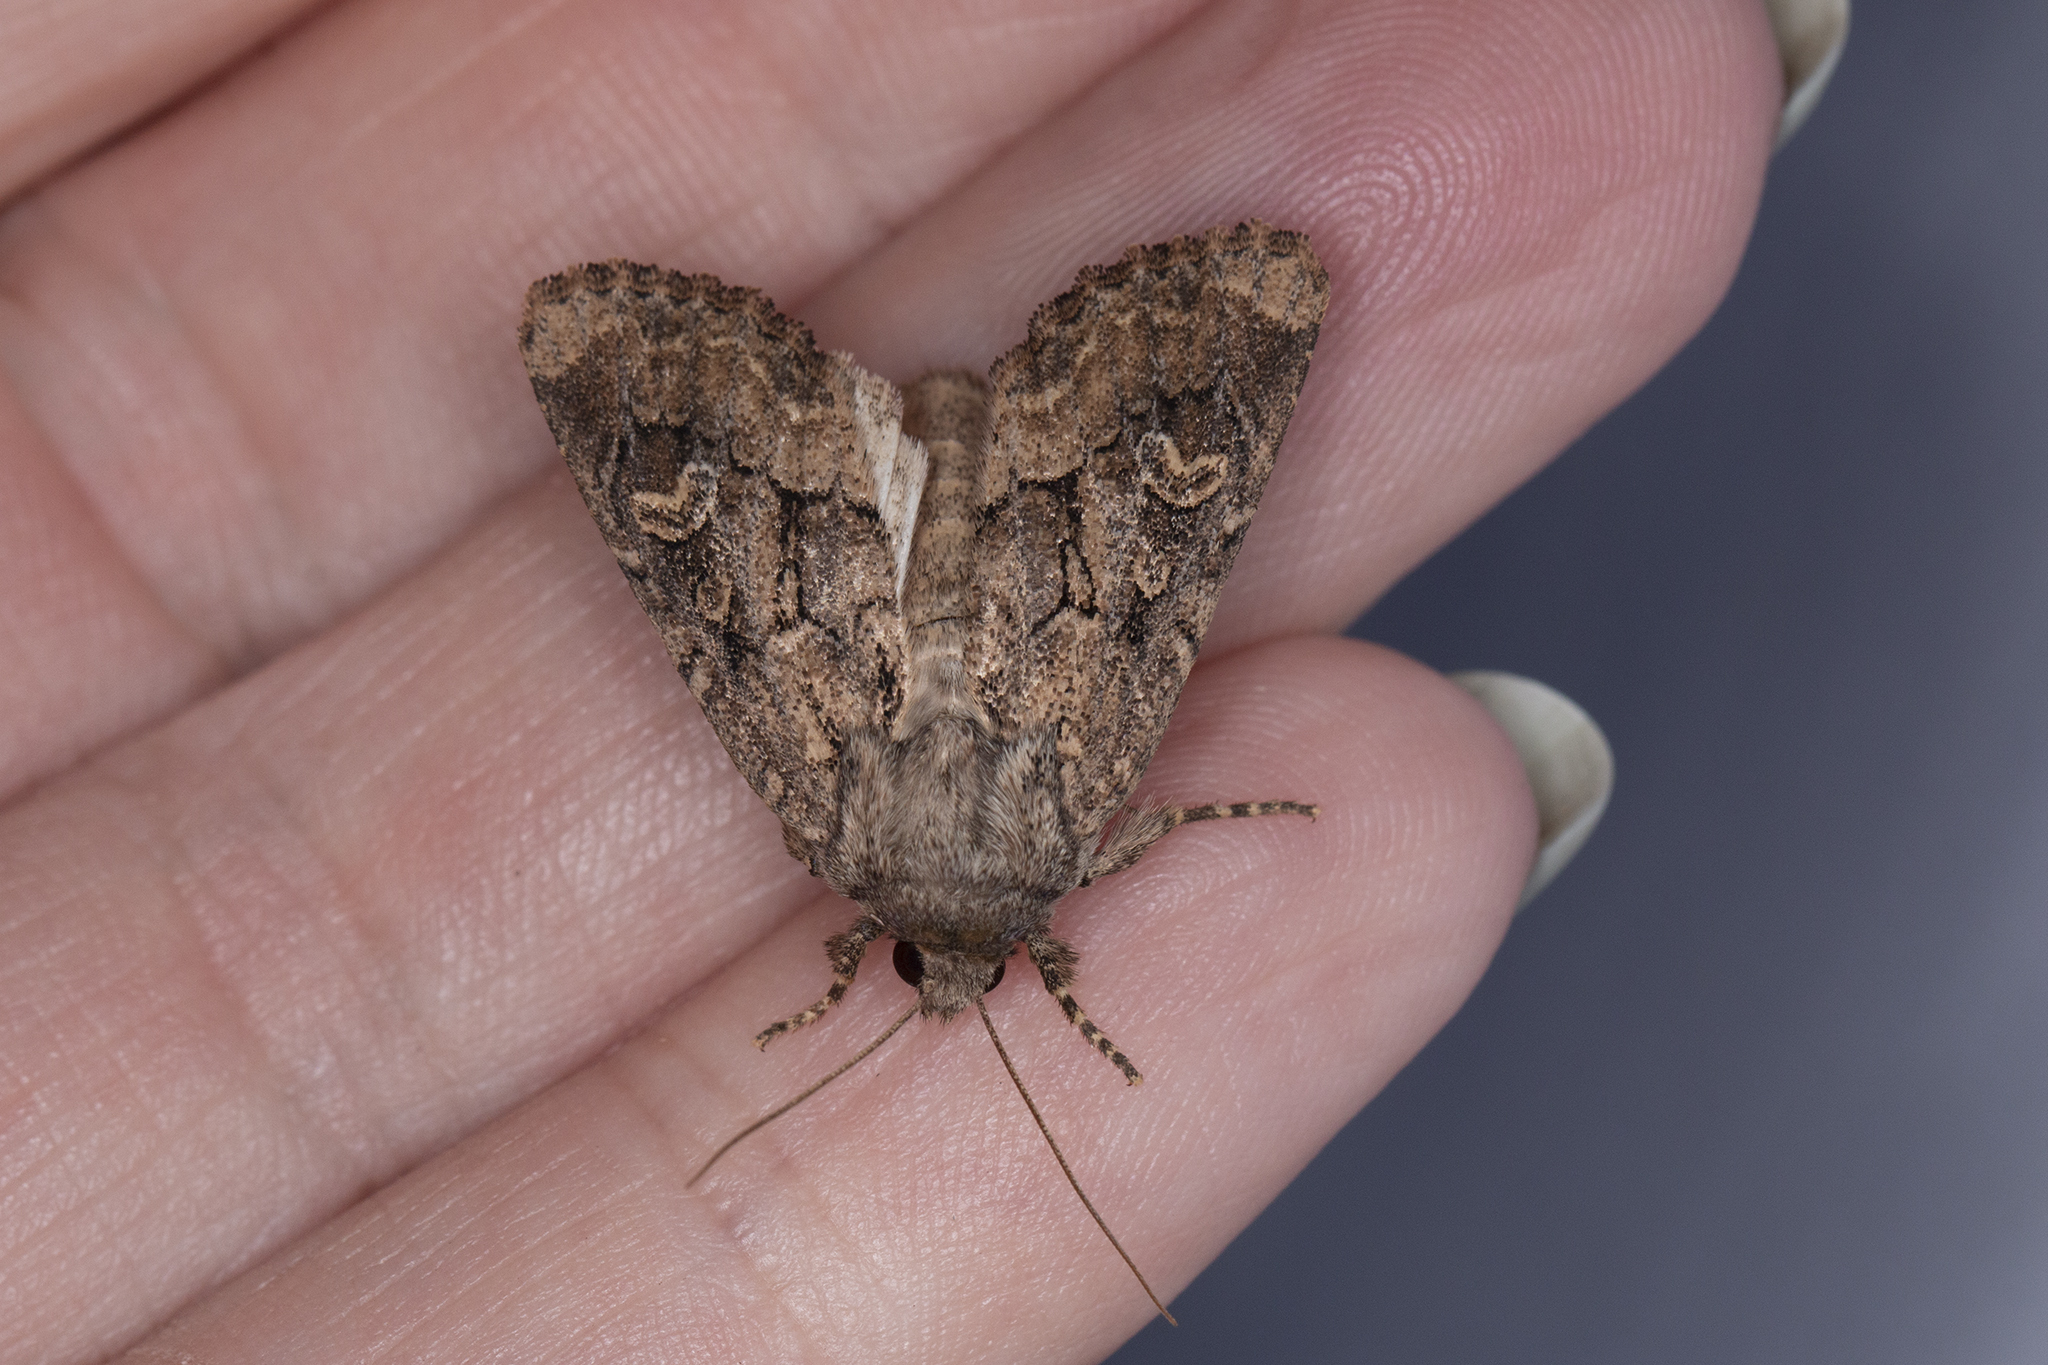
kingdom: Animalia
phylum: Arthropoda
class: Insecta
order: Lepidoptera
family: Noctuidae
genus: Luperina
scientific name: Luperina testacea
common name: Flounced rustic
